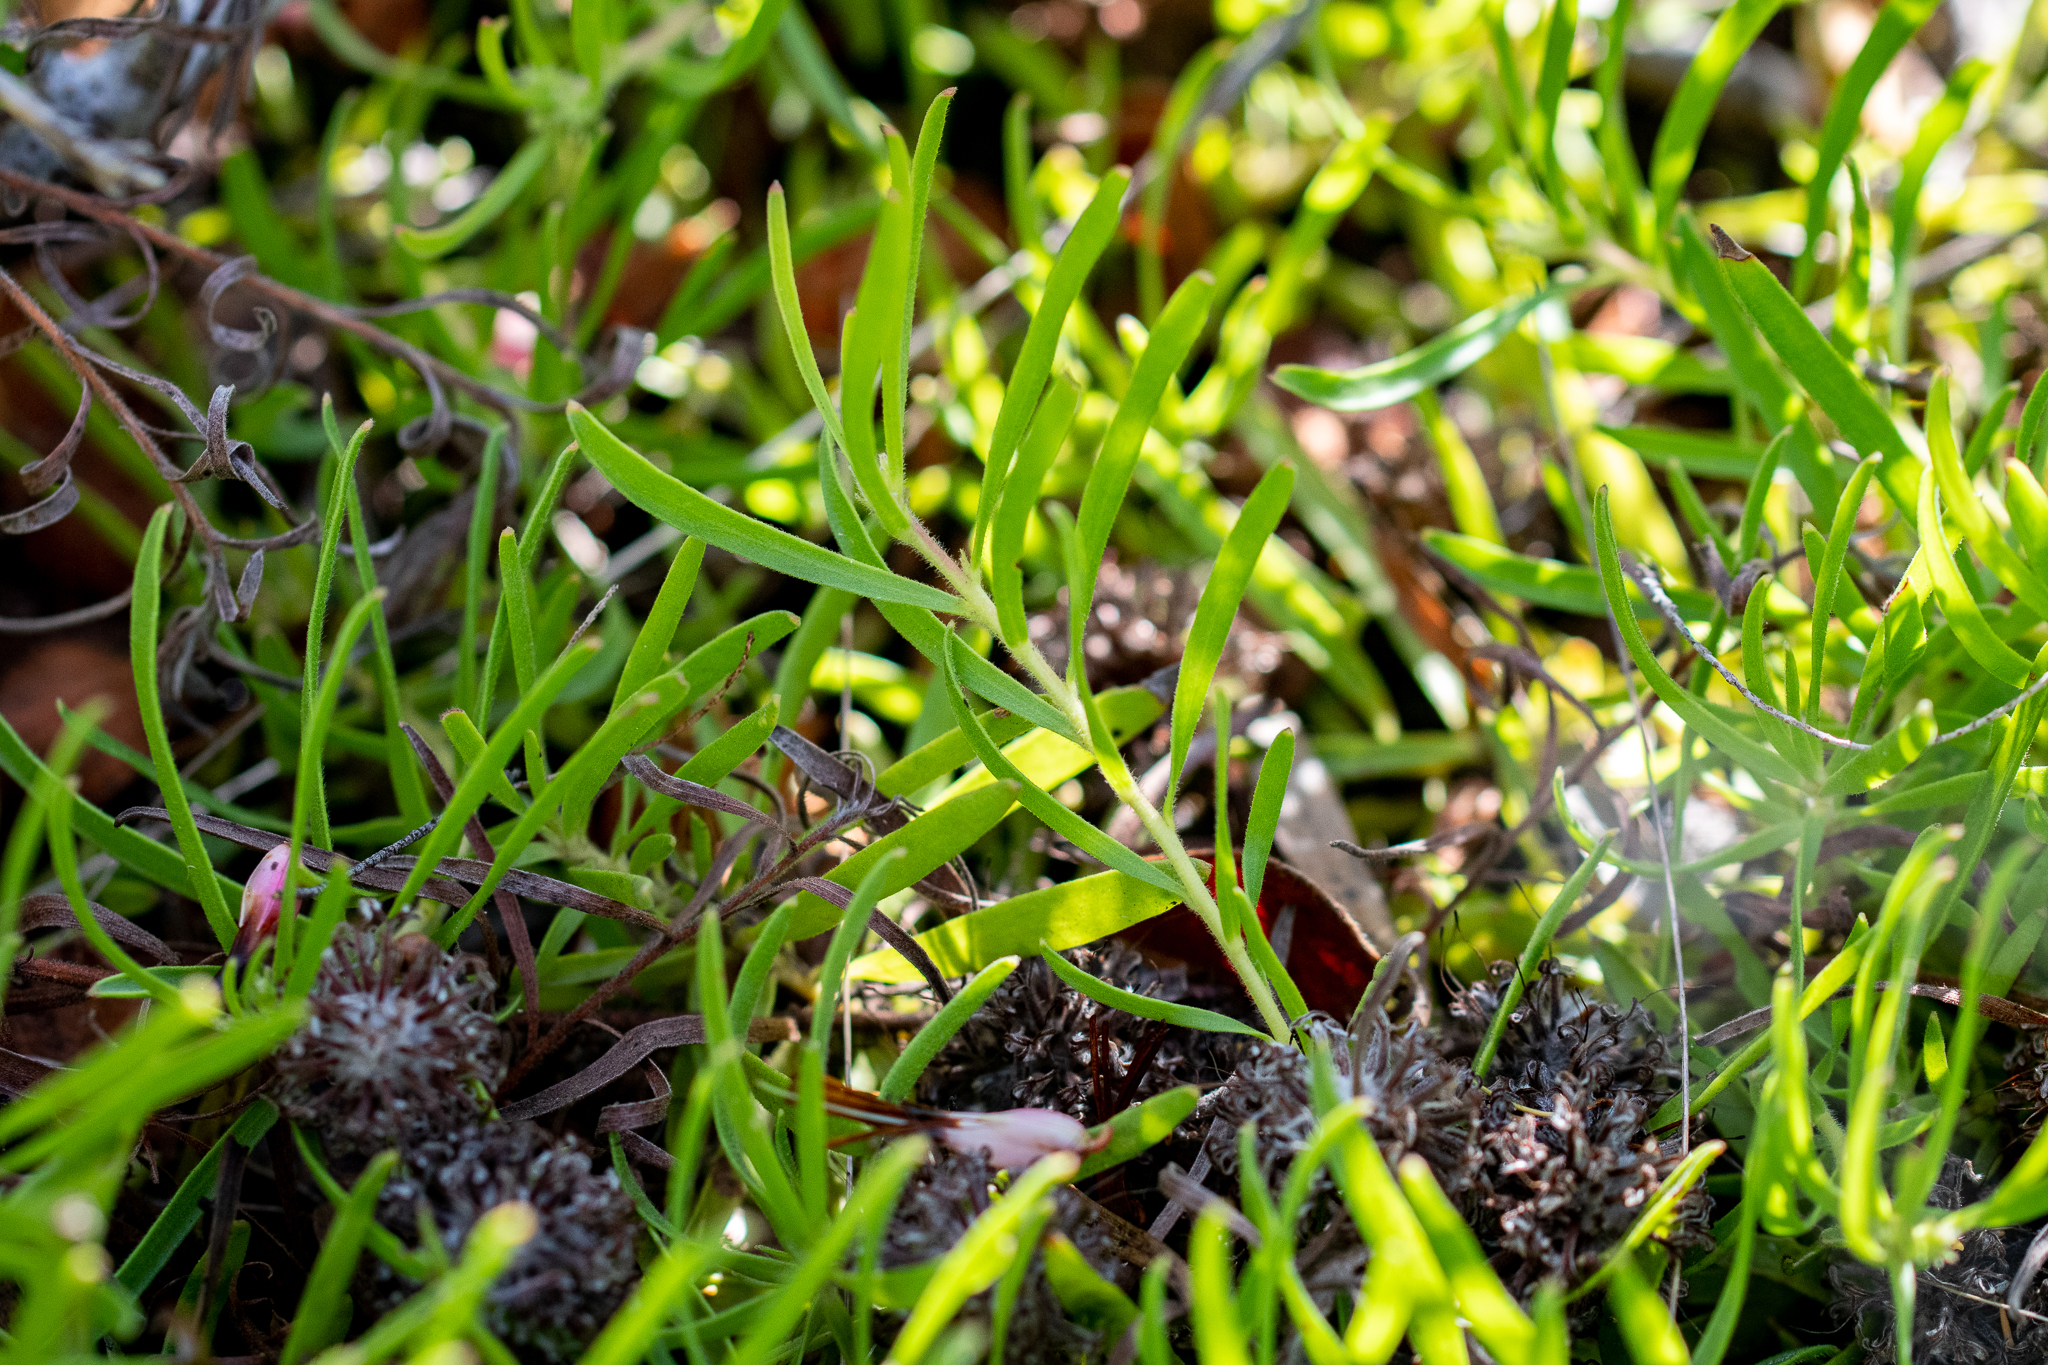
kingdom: Plantae
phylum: Tracheophyta
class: Magnoliopsida
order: Proteales
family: Proteaceae
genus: Leucospermum
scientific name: Leucospermum pedunculatum
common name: White-trailing pincushion
